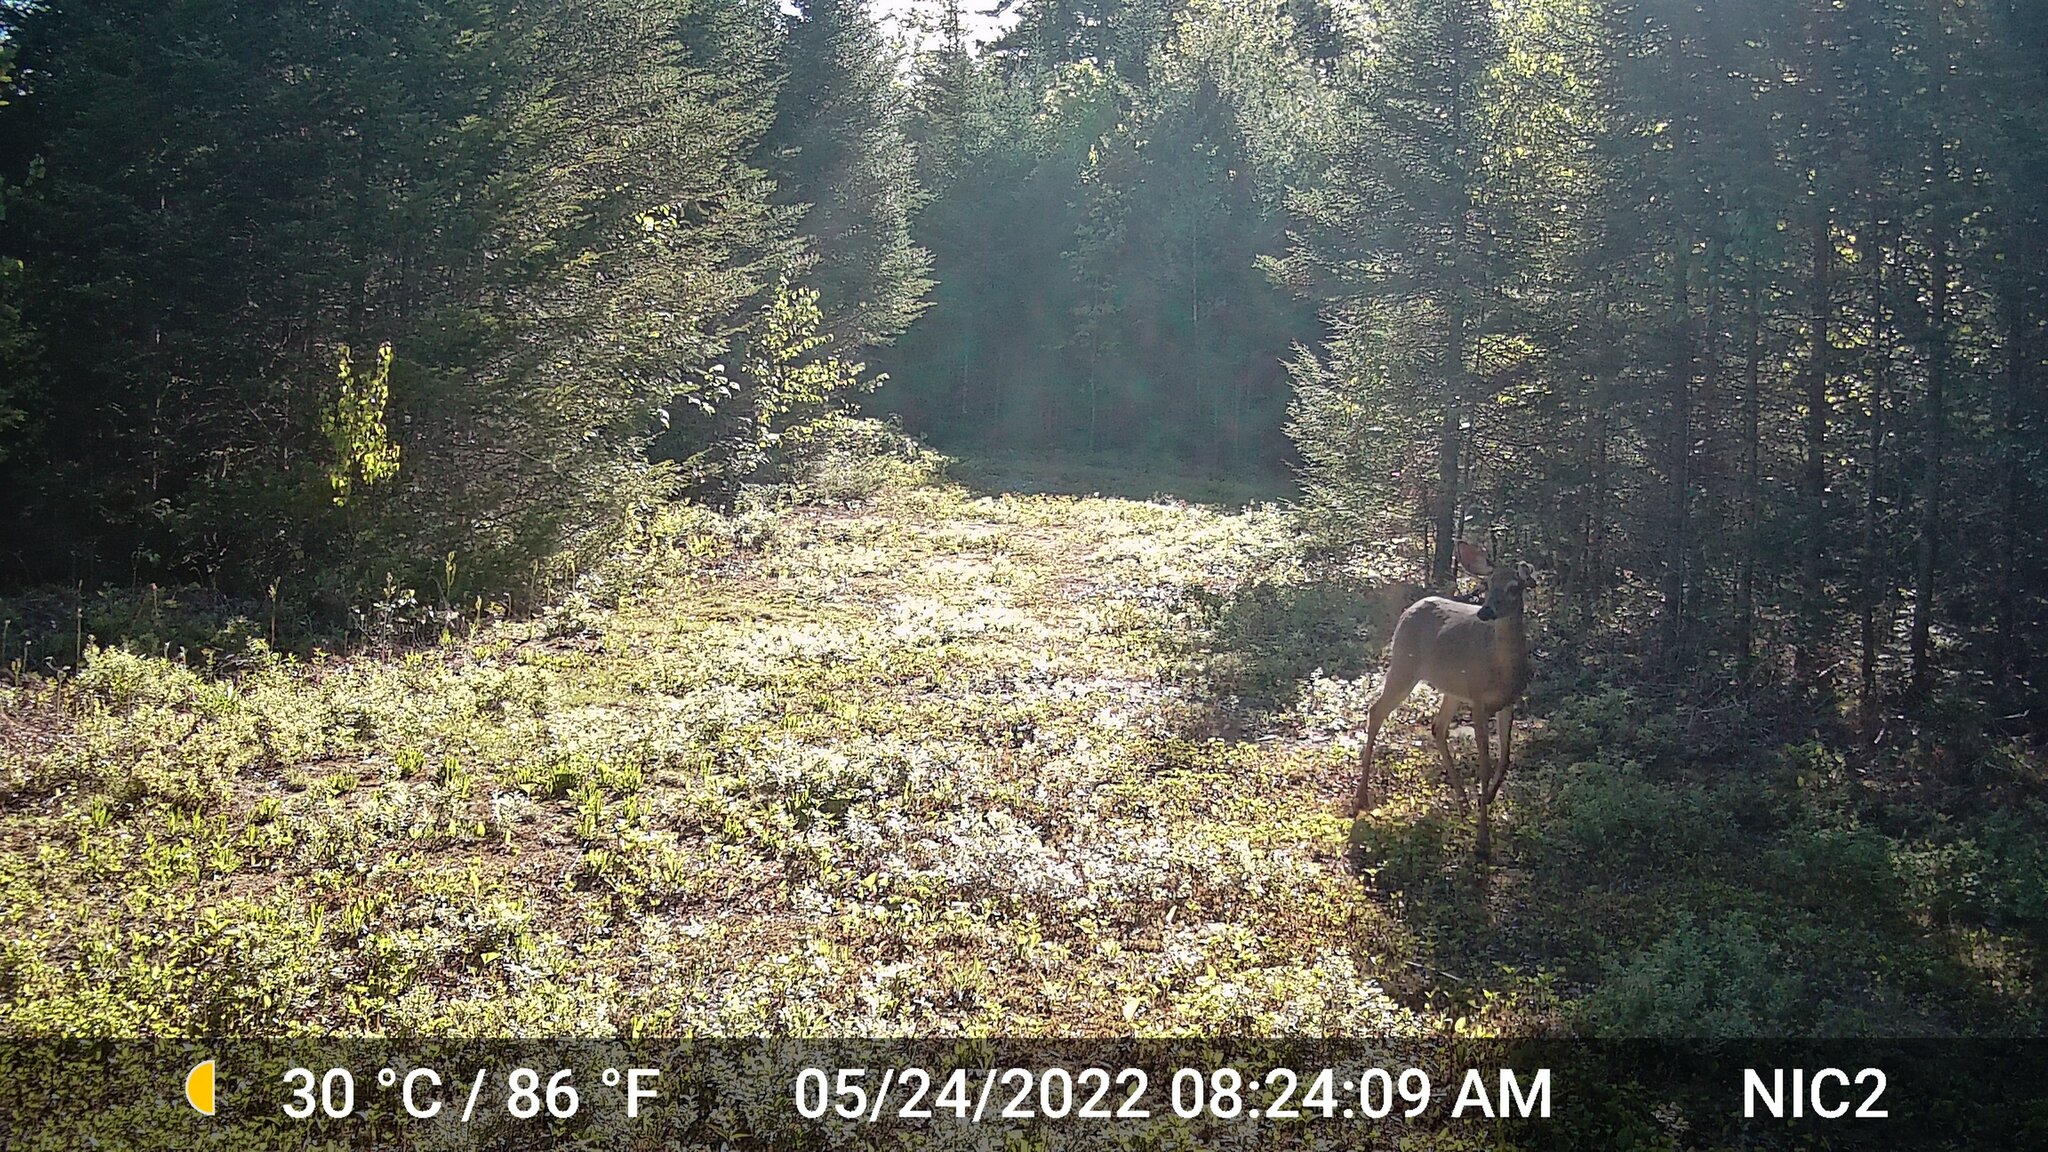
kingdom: Animalia
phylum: Chordata
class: Mammalia
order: Artiodactyla
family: Cervidae
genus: Odocoileus
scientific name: Odocoileus virginianus
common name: White-tailed deer
